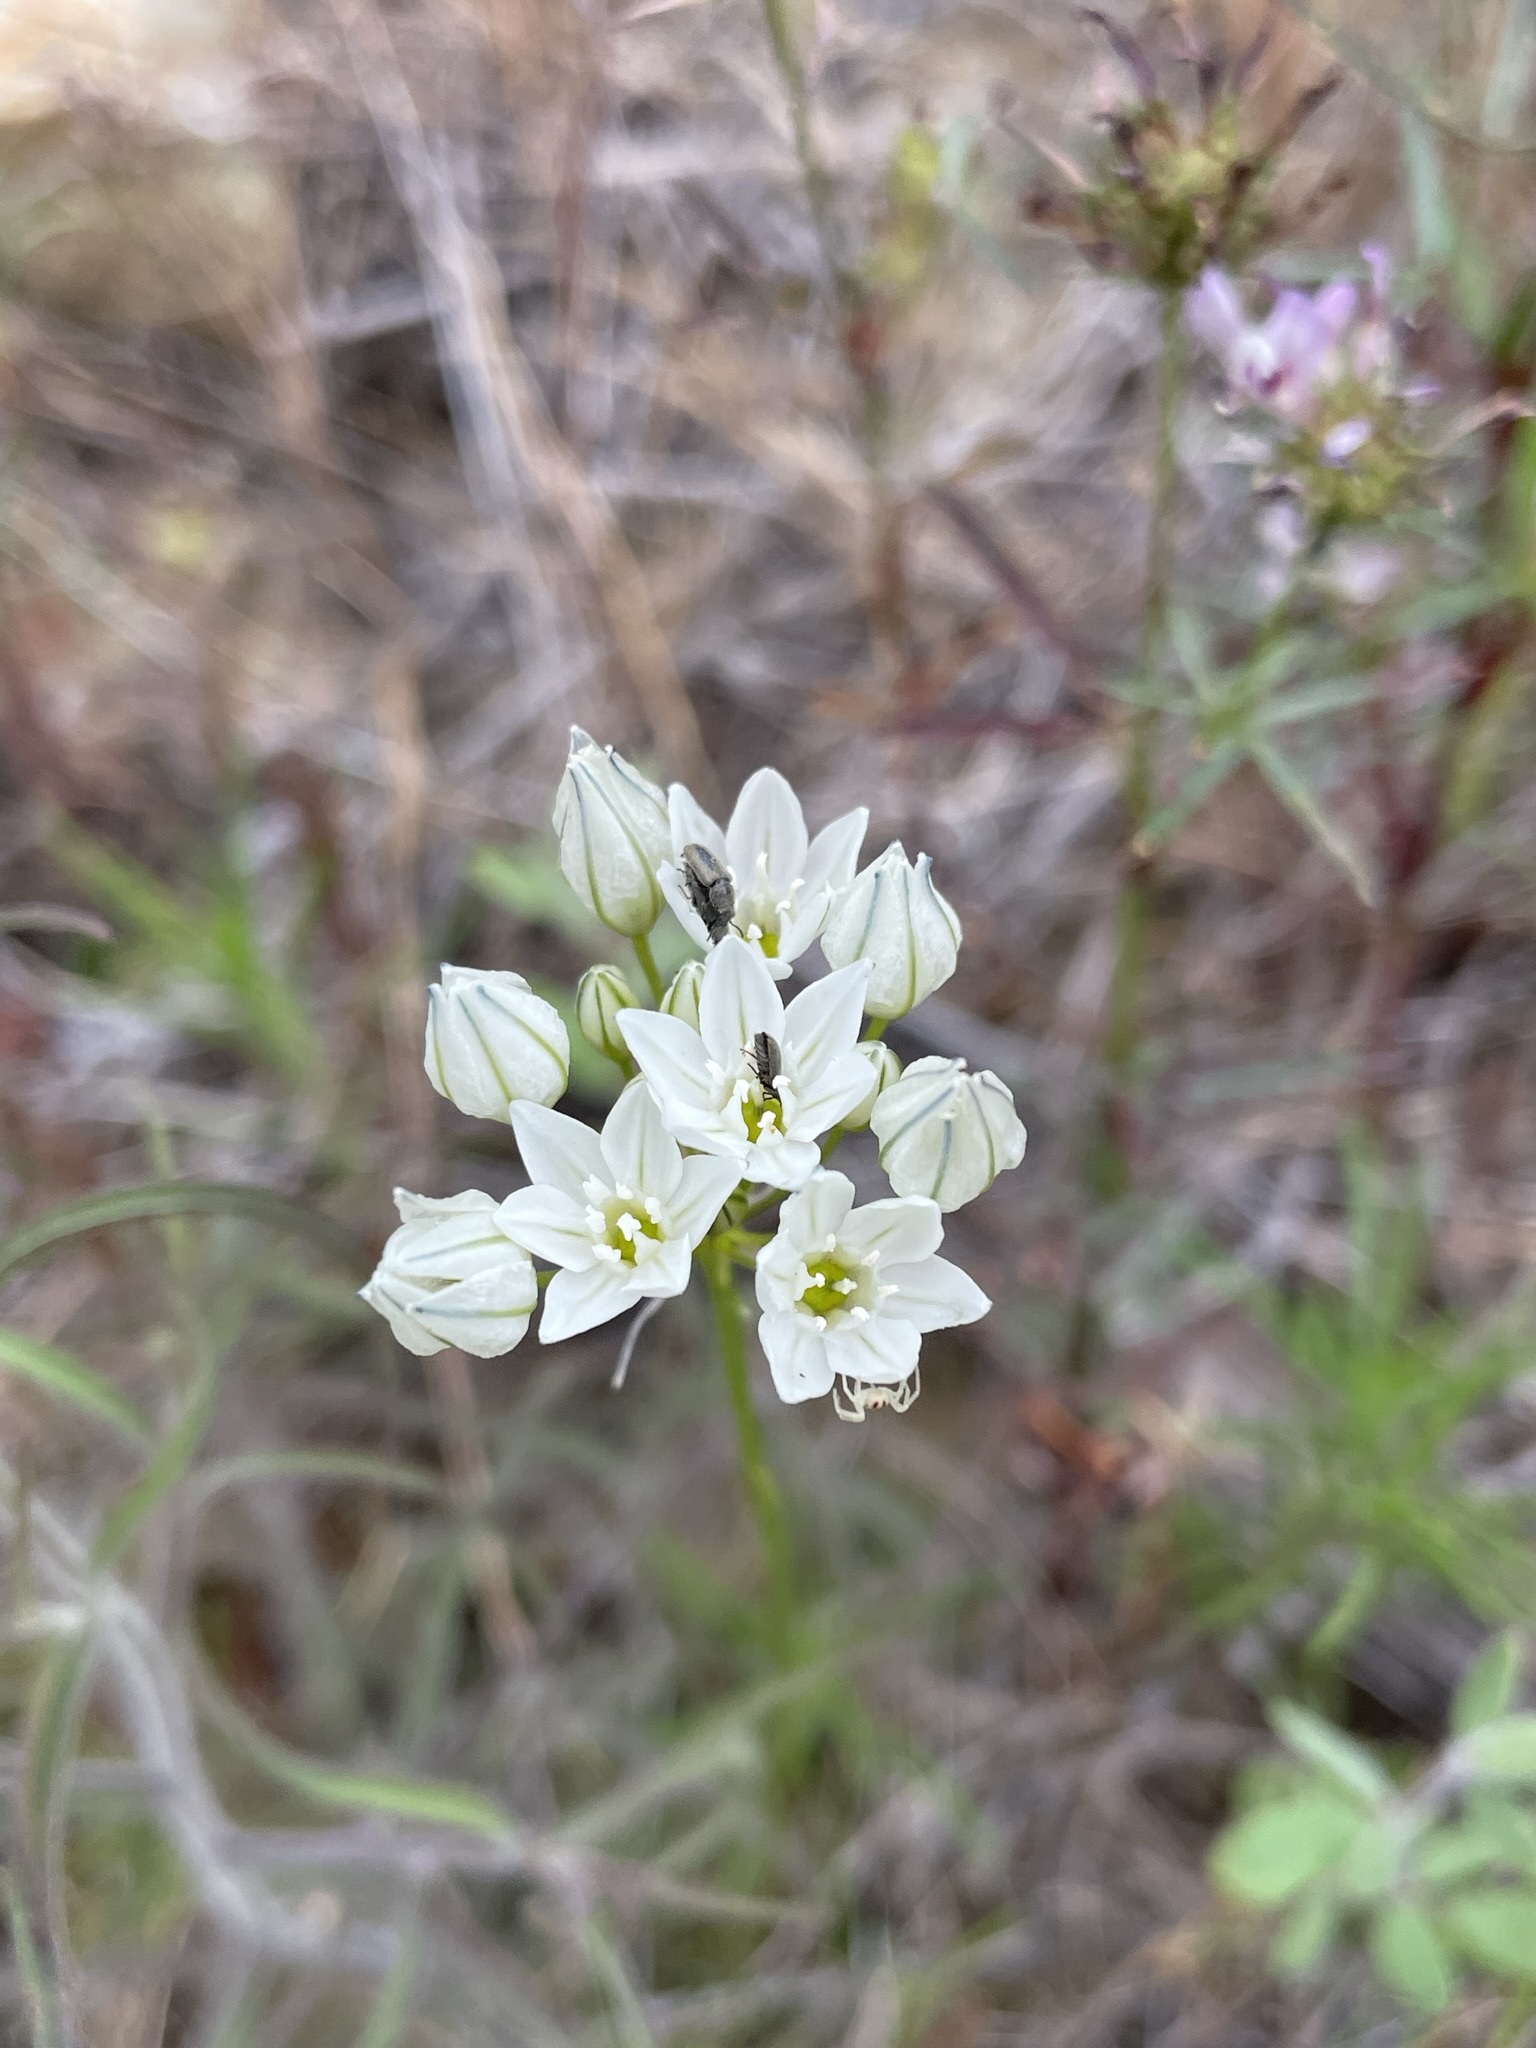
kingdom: Plantae
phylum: Tracheophyta
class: Liliopsida
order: Asparagales
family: Asparagaceae
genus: Triteleia
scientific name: Triteleia hyacinthina
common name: White brodiaea
